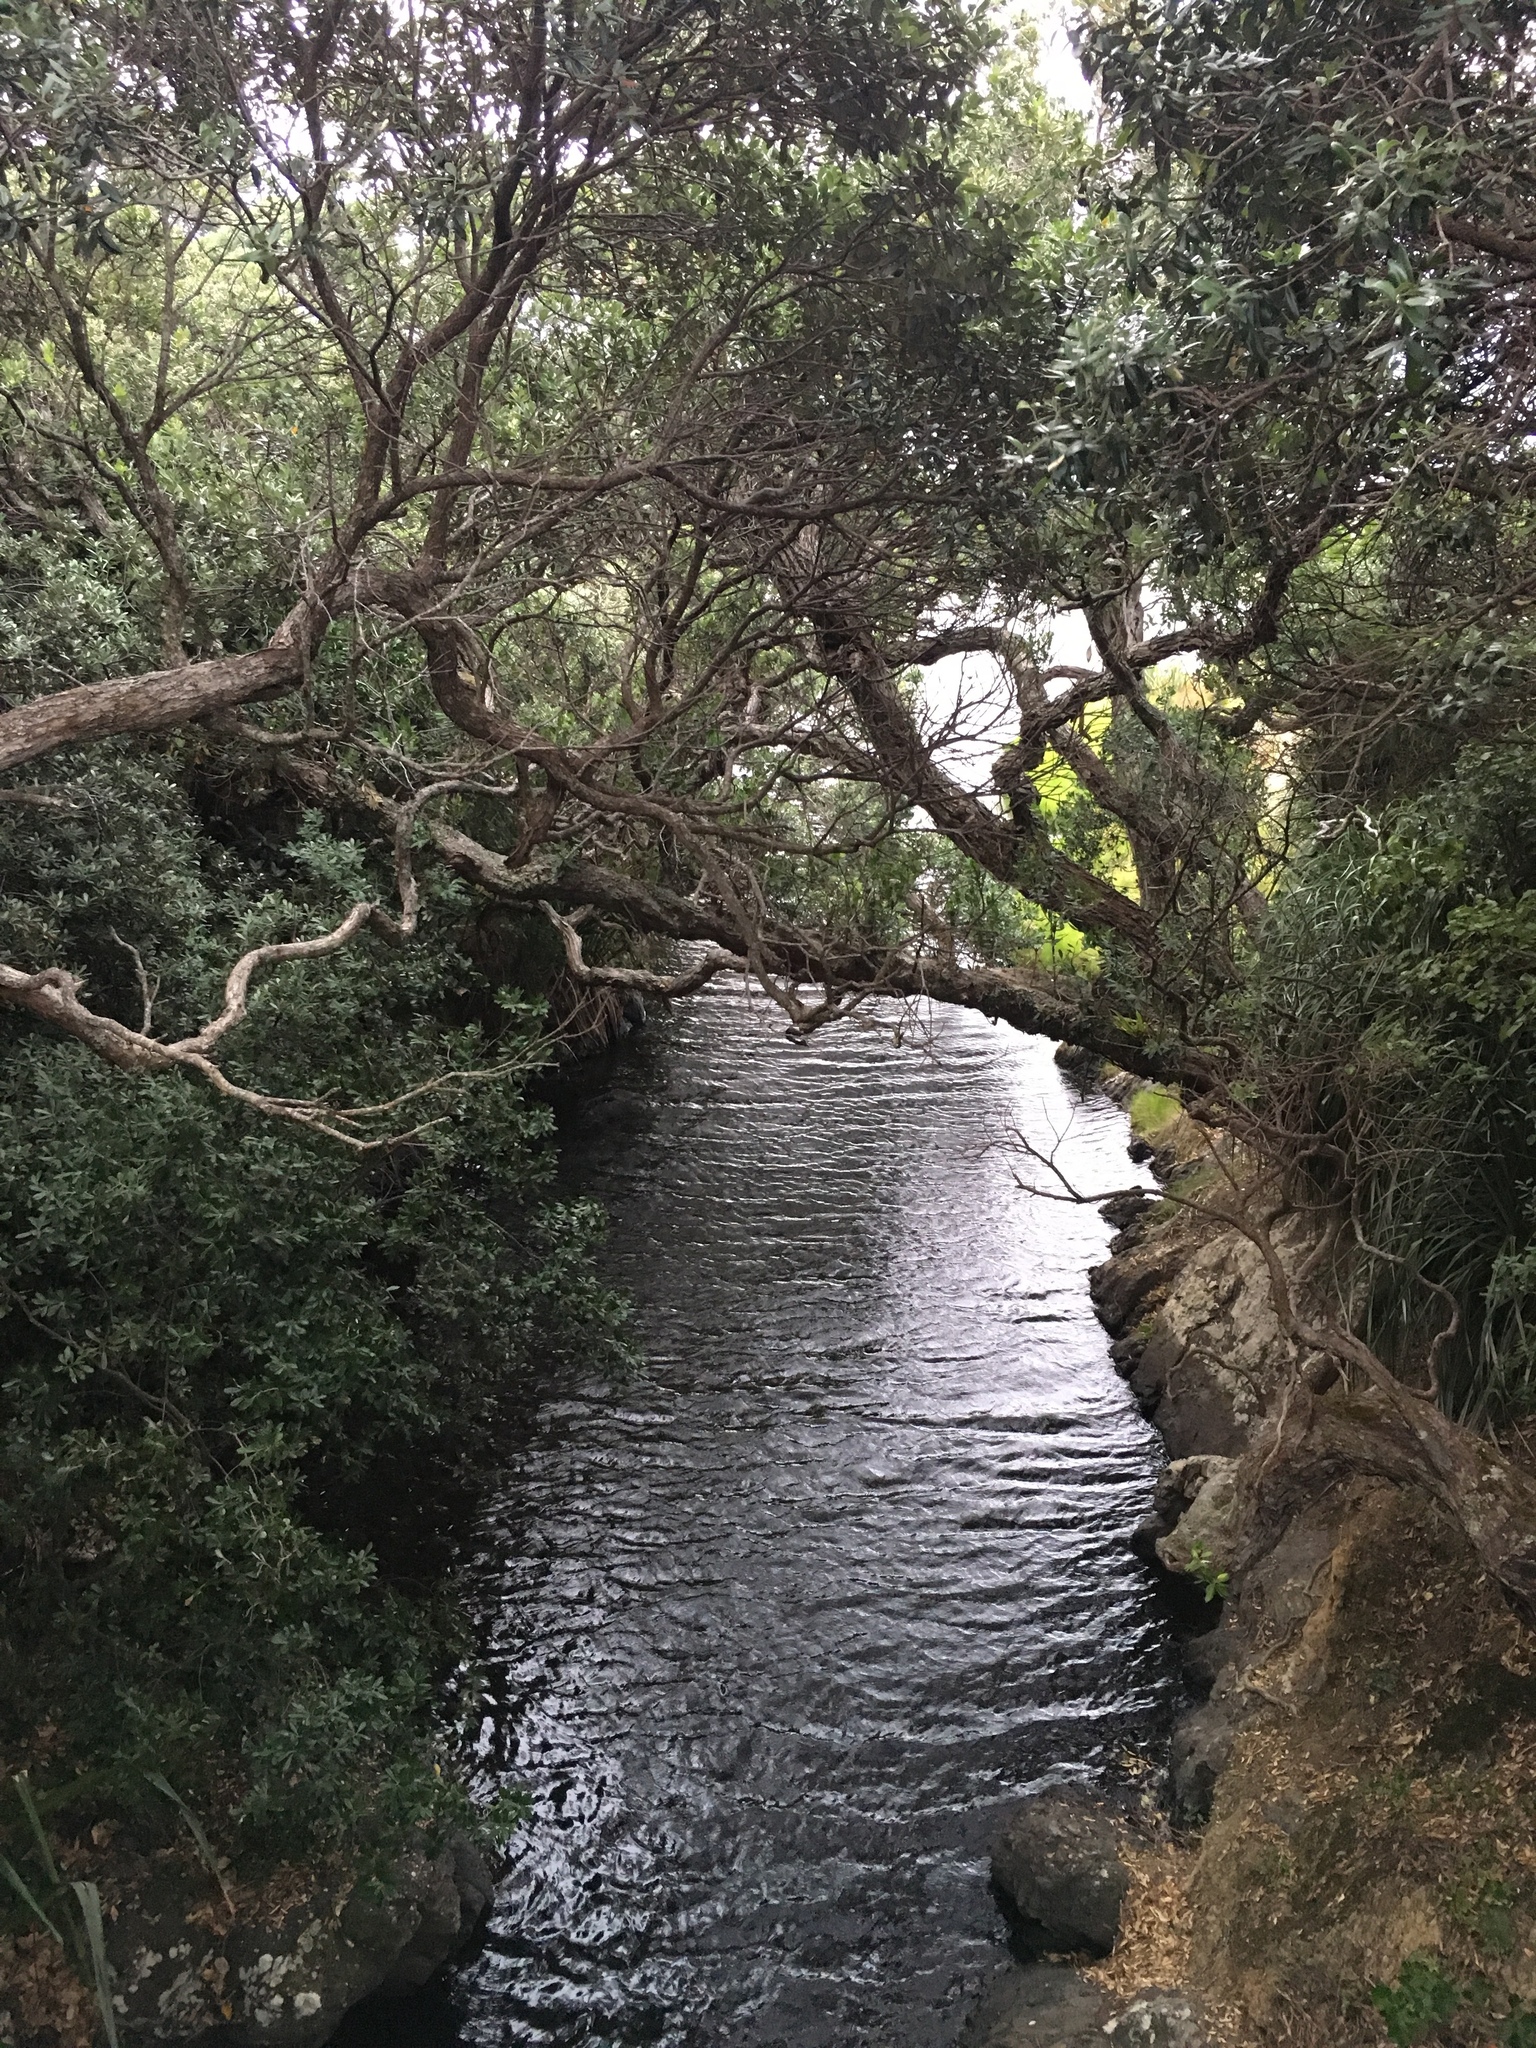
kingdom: Plantae
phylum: Tracheophyta
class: Magnoliopsida
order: Myrtales
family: Myrtaceae
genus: Metrosideros
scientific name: Metrosideros excelsa
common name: New zealand christmastree
